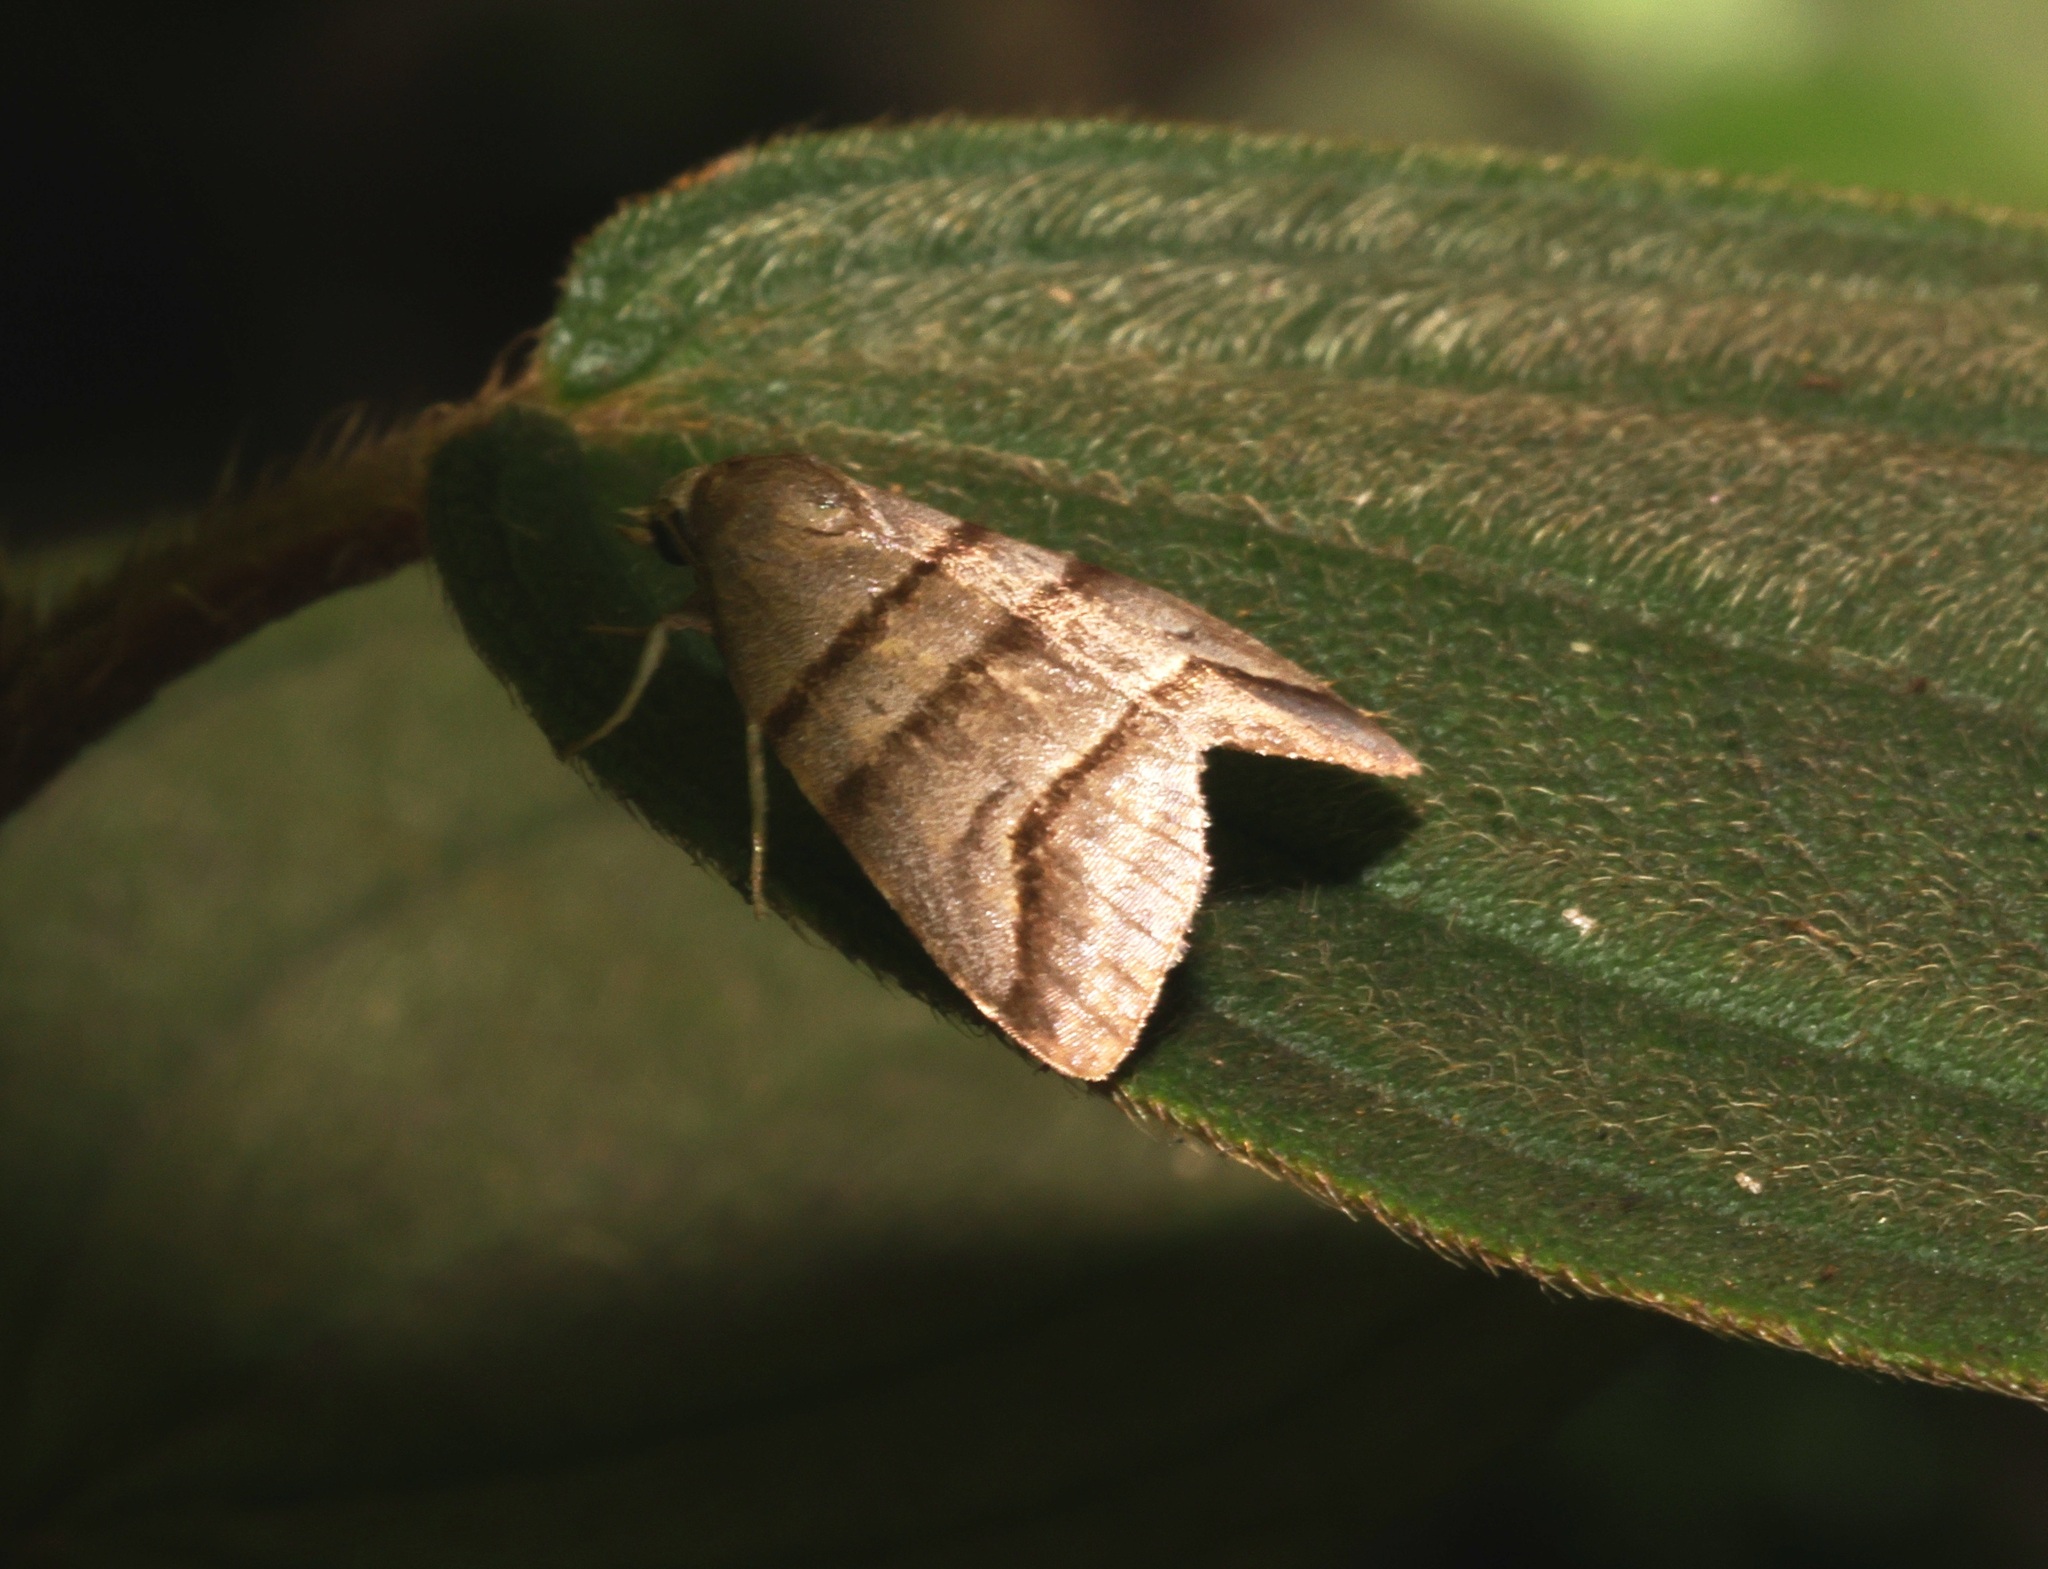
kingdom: Animalia
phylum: Arthropoda
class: Insecta
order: Lepidoptera
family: Noctuidae
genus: Flammona
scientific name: Flammona trilineata
